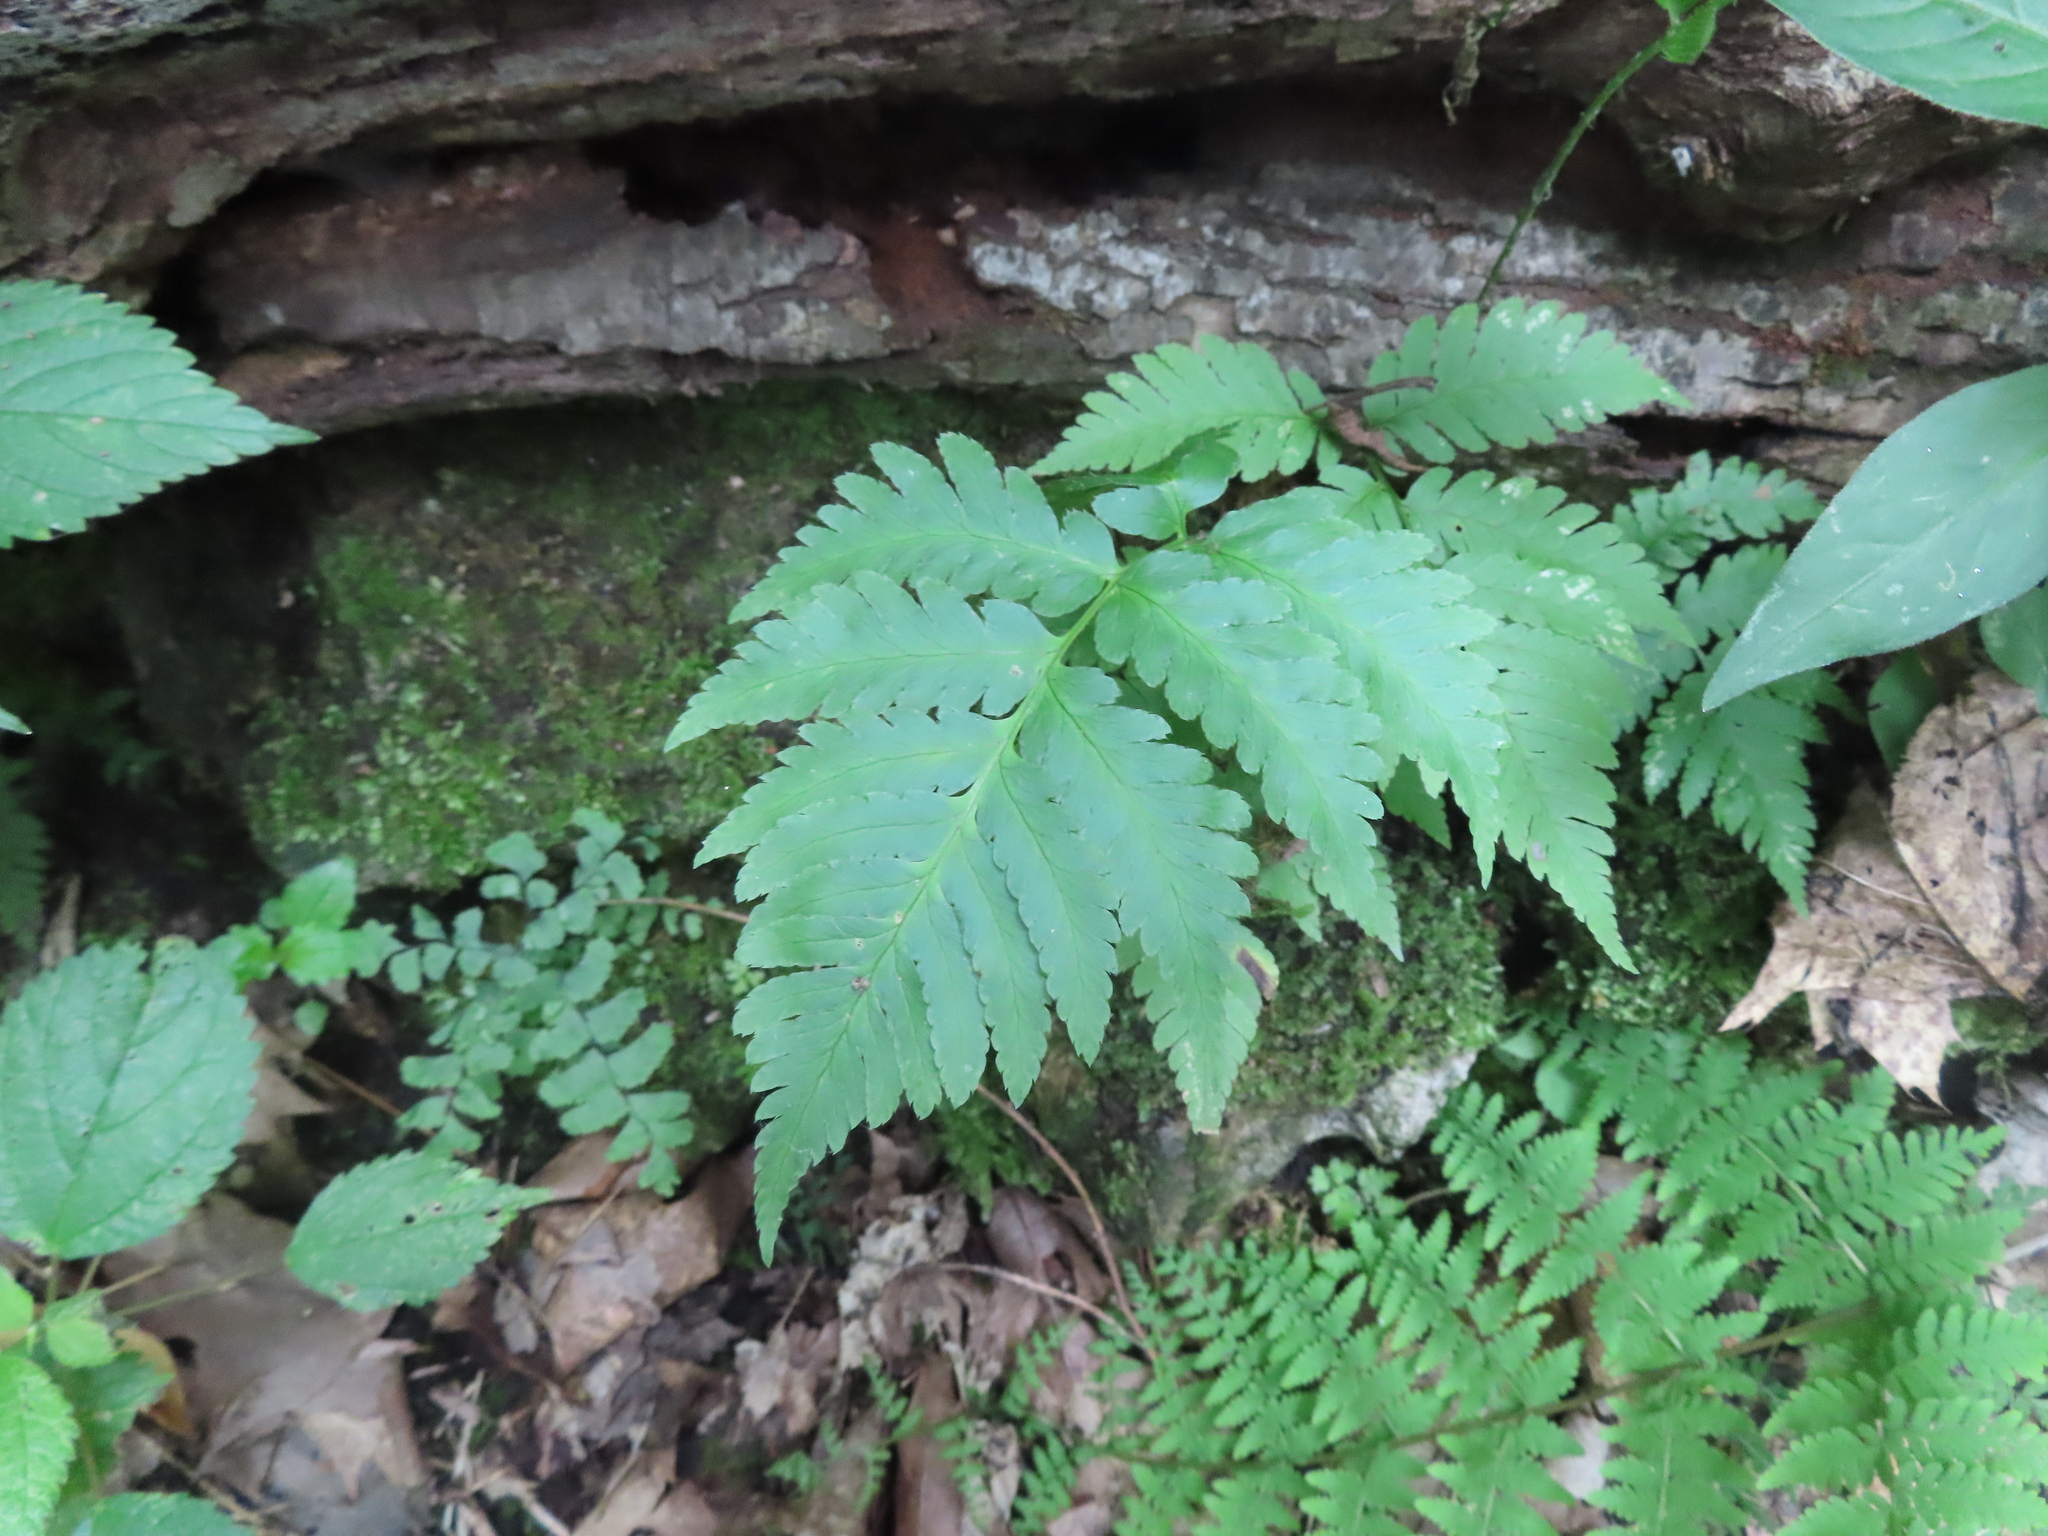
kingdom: Plantae
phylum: Tracheophyta
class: Polypodiopsida
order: Polypodiales
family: Dryopteridaceae
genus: Dryopteris
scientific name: Dryopteris goldieana
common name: Goldie's fern
